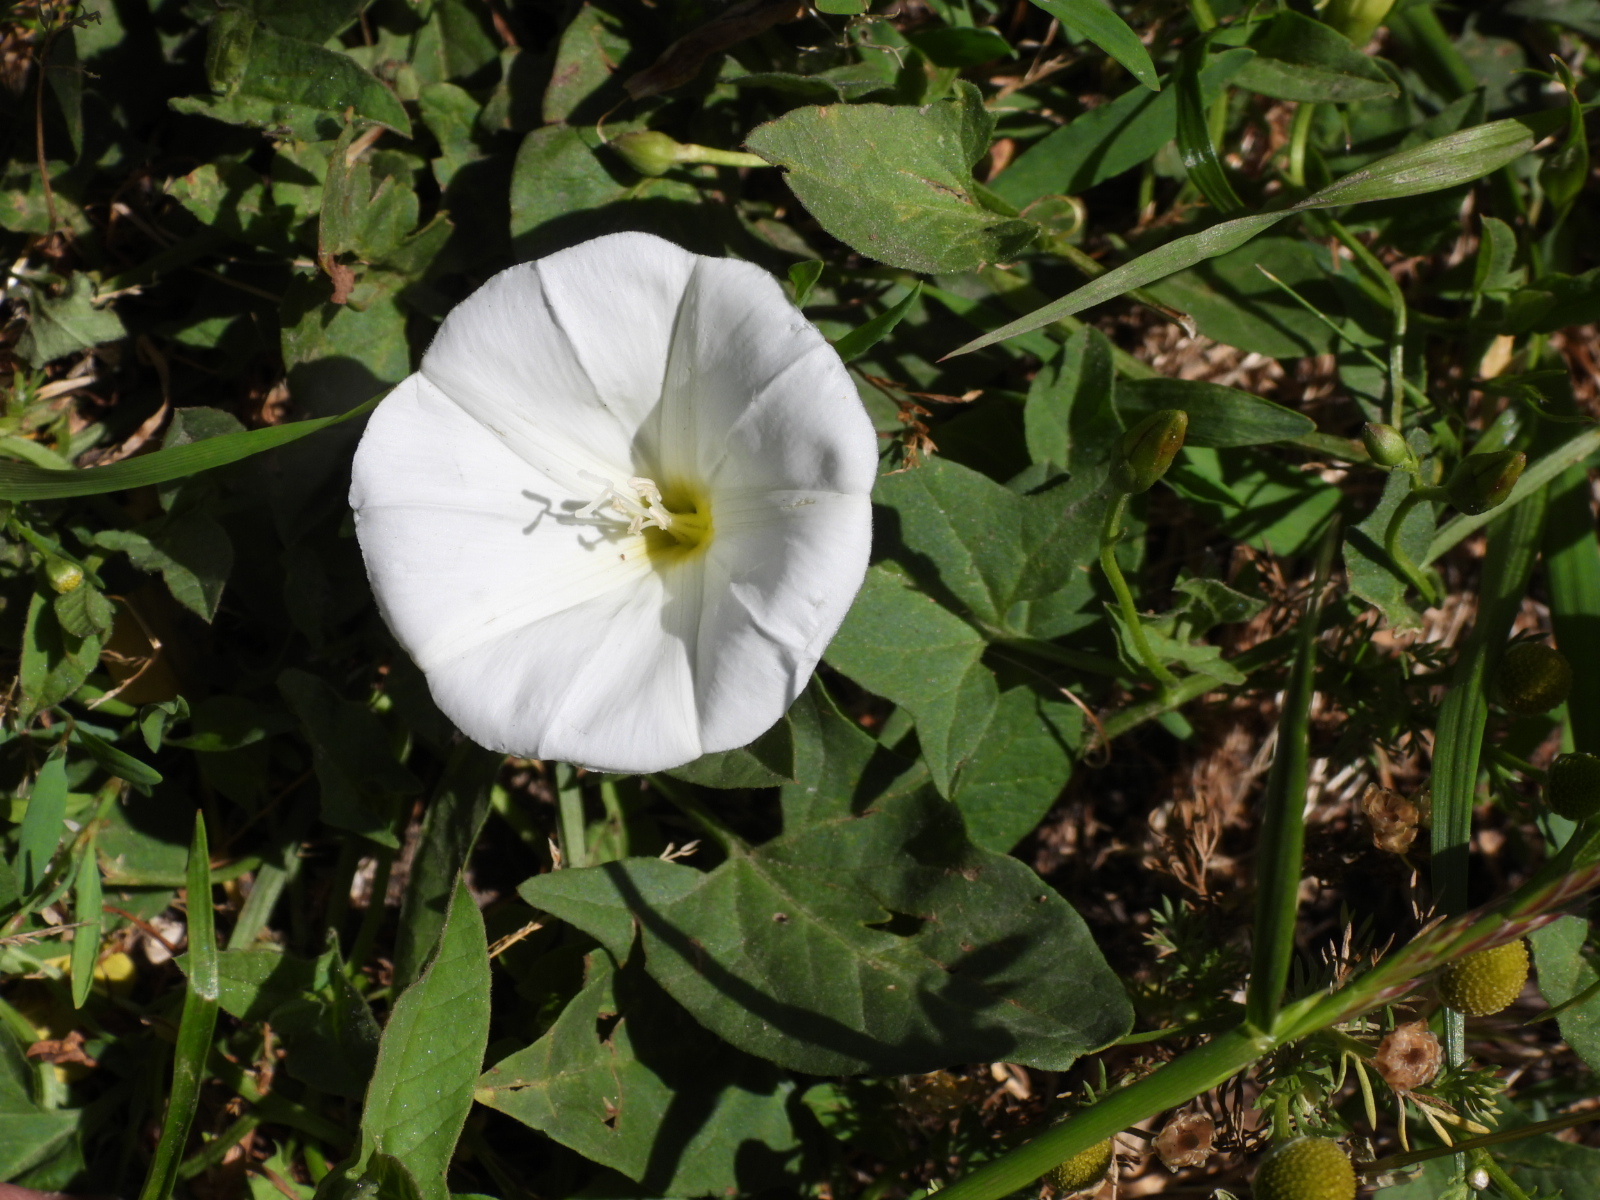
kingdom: Plantae
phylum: Tracheophyta
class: Magnoliopsida
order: Solanales
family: Convolvulaceae
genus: Convolvulus
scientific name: Convolvulus arvensis
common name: Field bindweed
